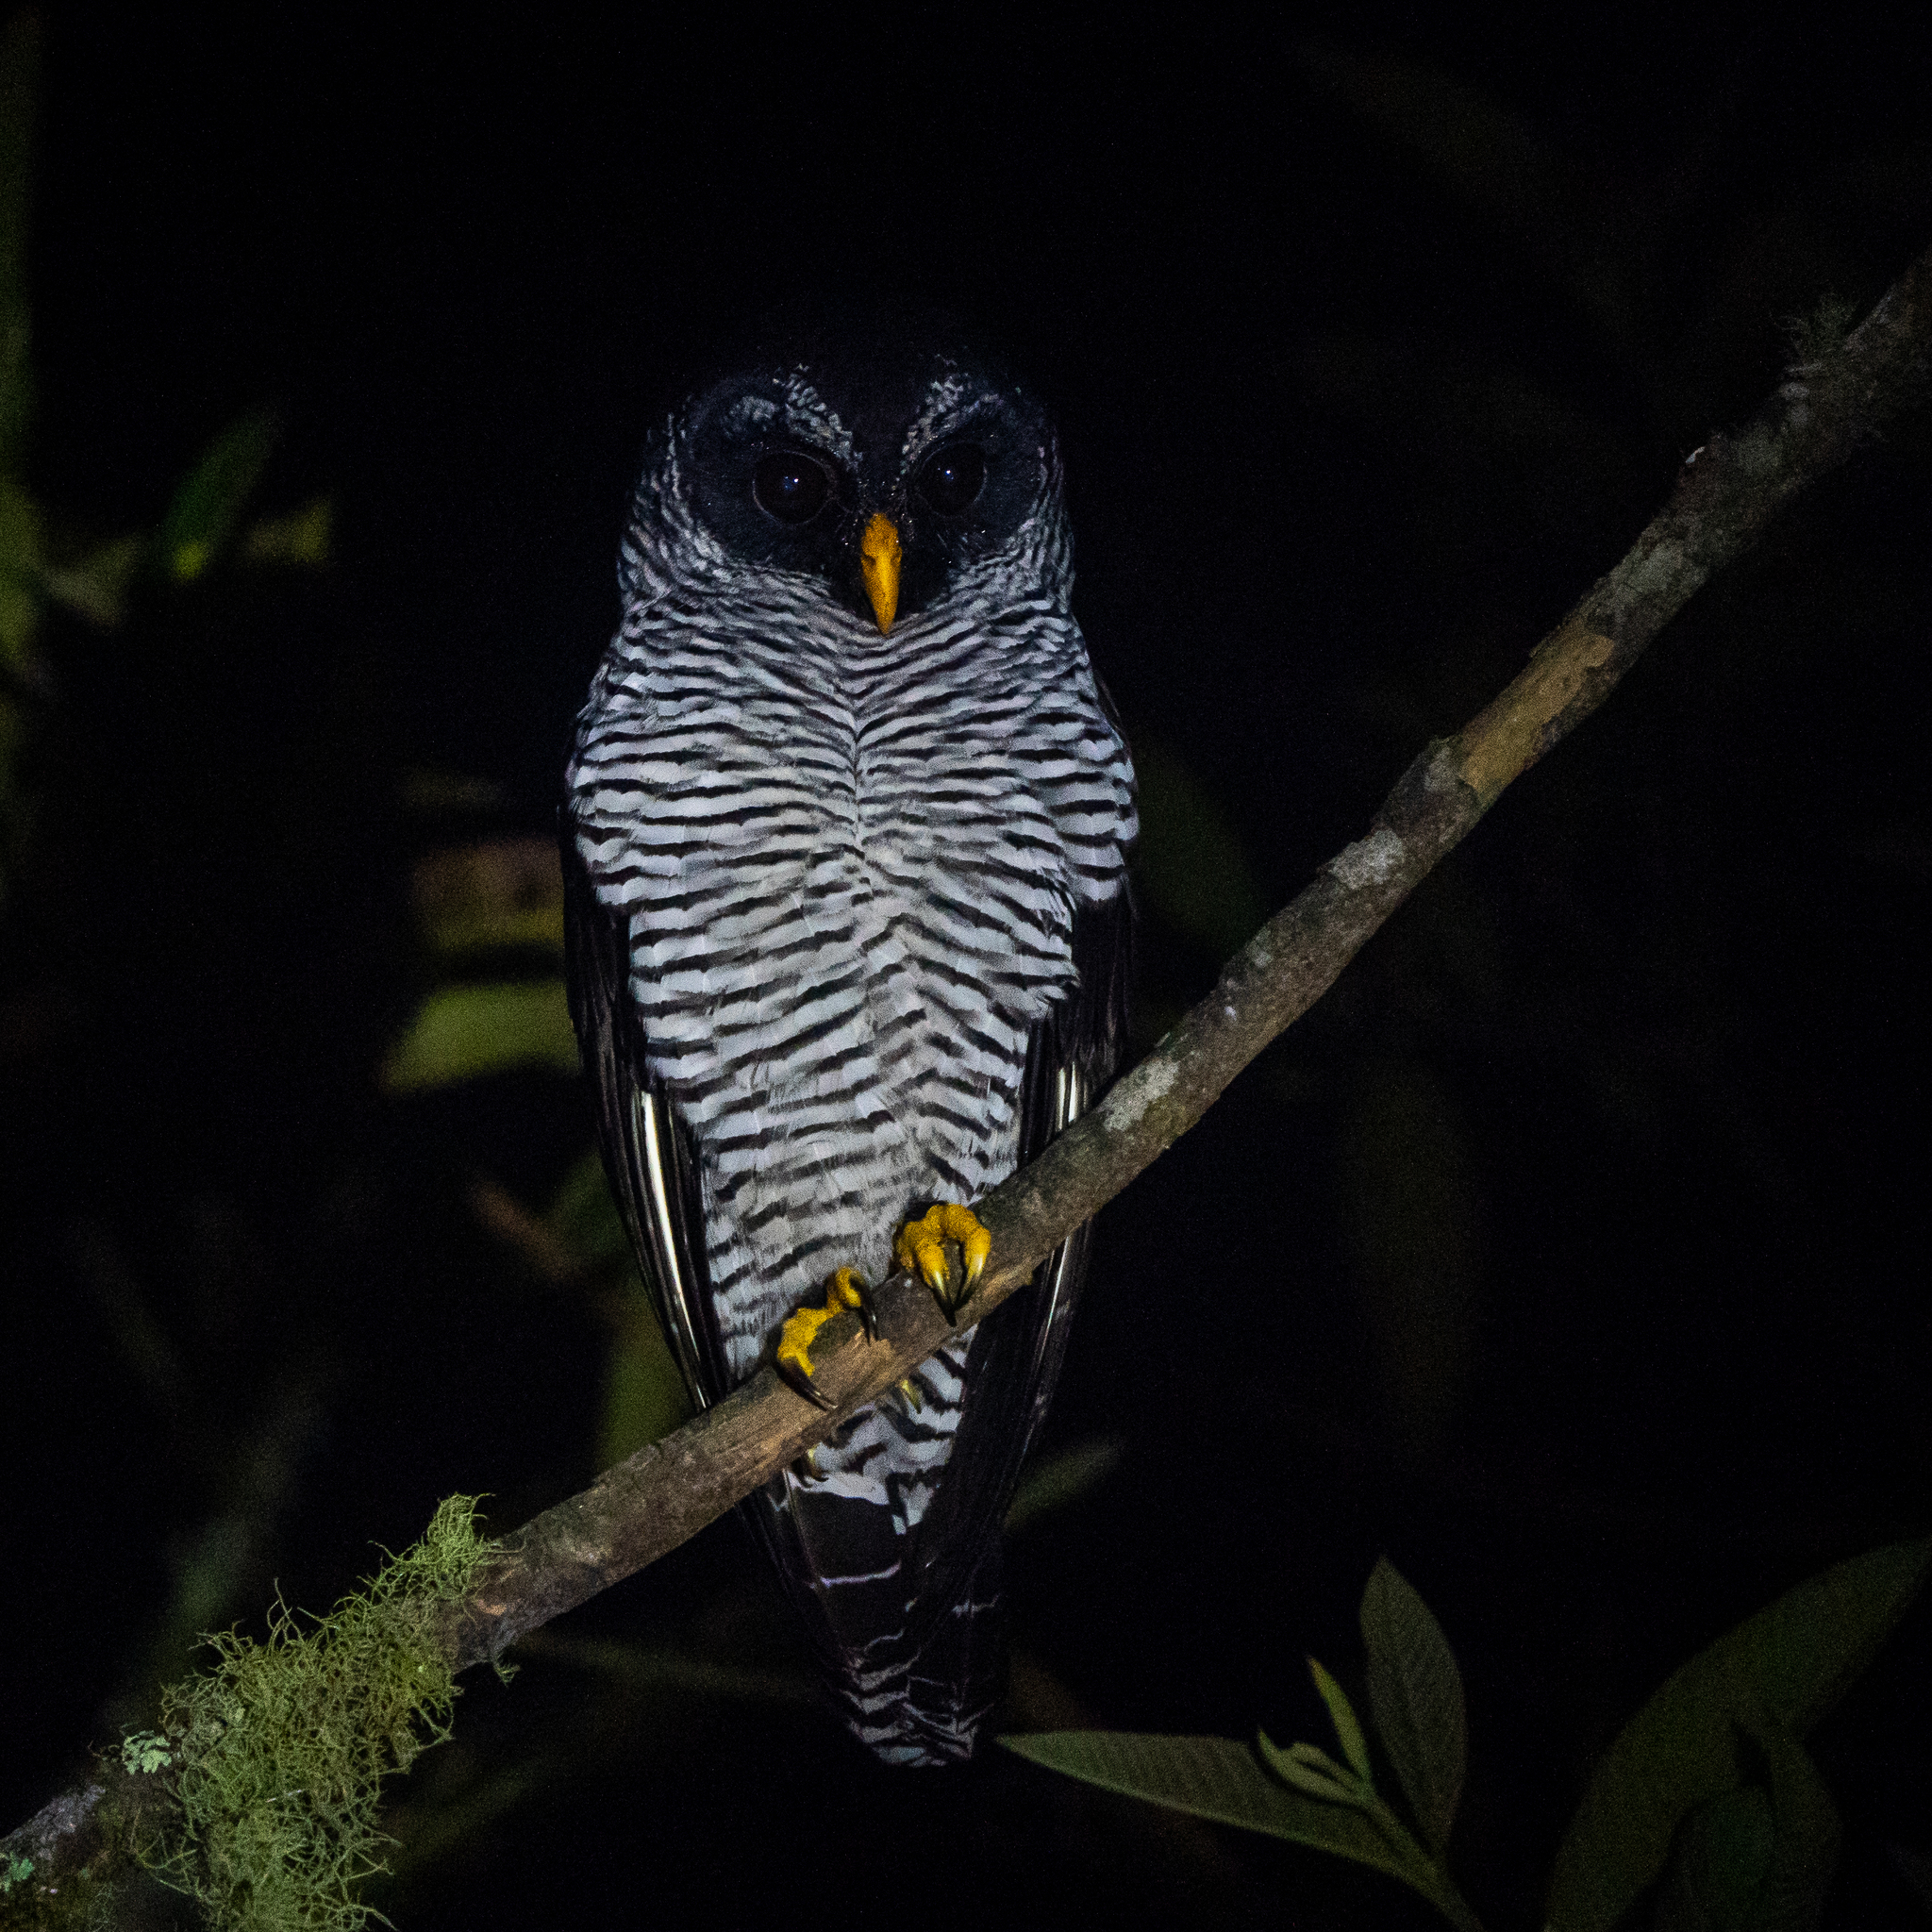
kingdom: Animalia
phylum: Chordata
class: Aves
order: Strigiformes
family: Strigidae
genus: Strix
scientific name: Strix nigrolineata
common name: Black-and-white owl
